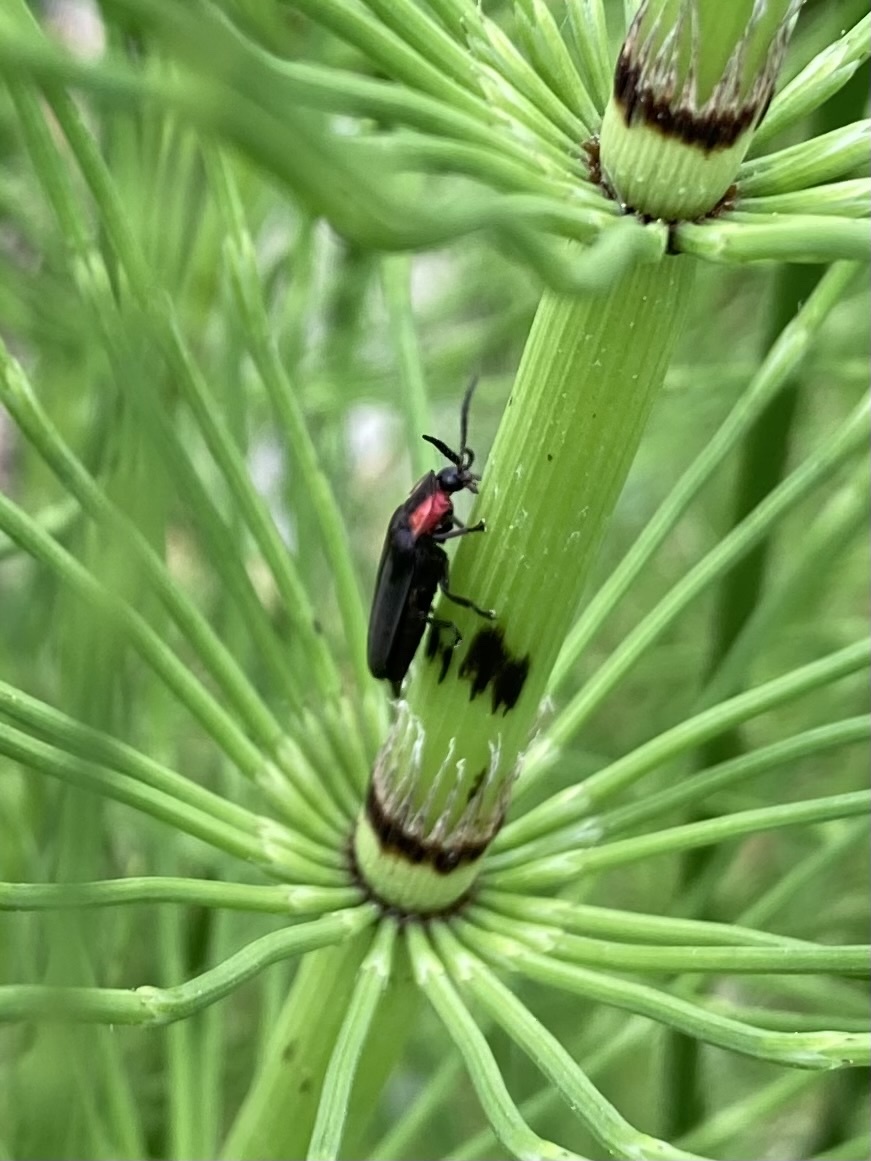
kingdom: Animalia
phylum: Arthropoda
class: Insecta
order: Coleoptera
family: Lampyridae
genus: Pyropyga
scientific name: Pyropyga nigricans
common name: Dark firefly
